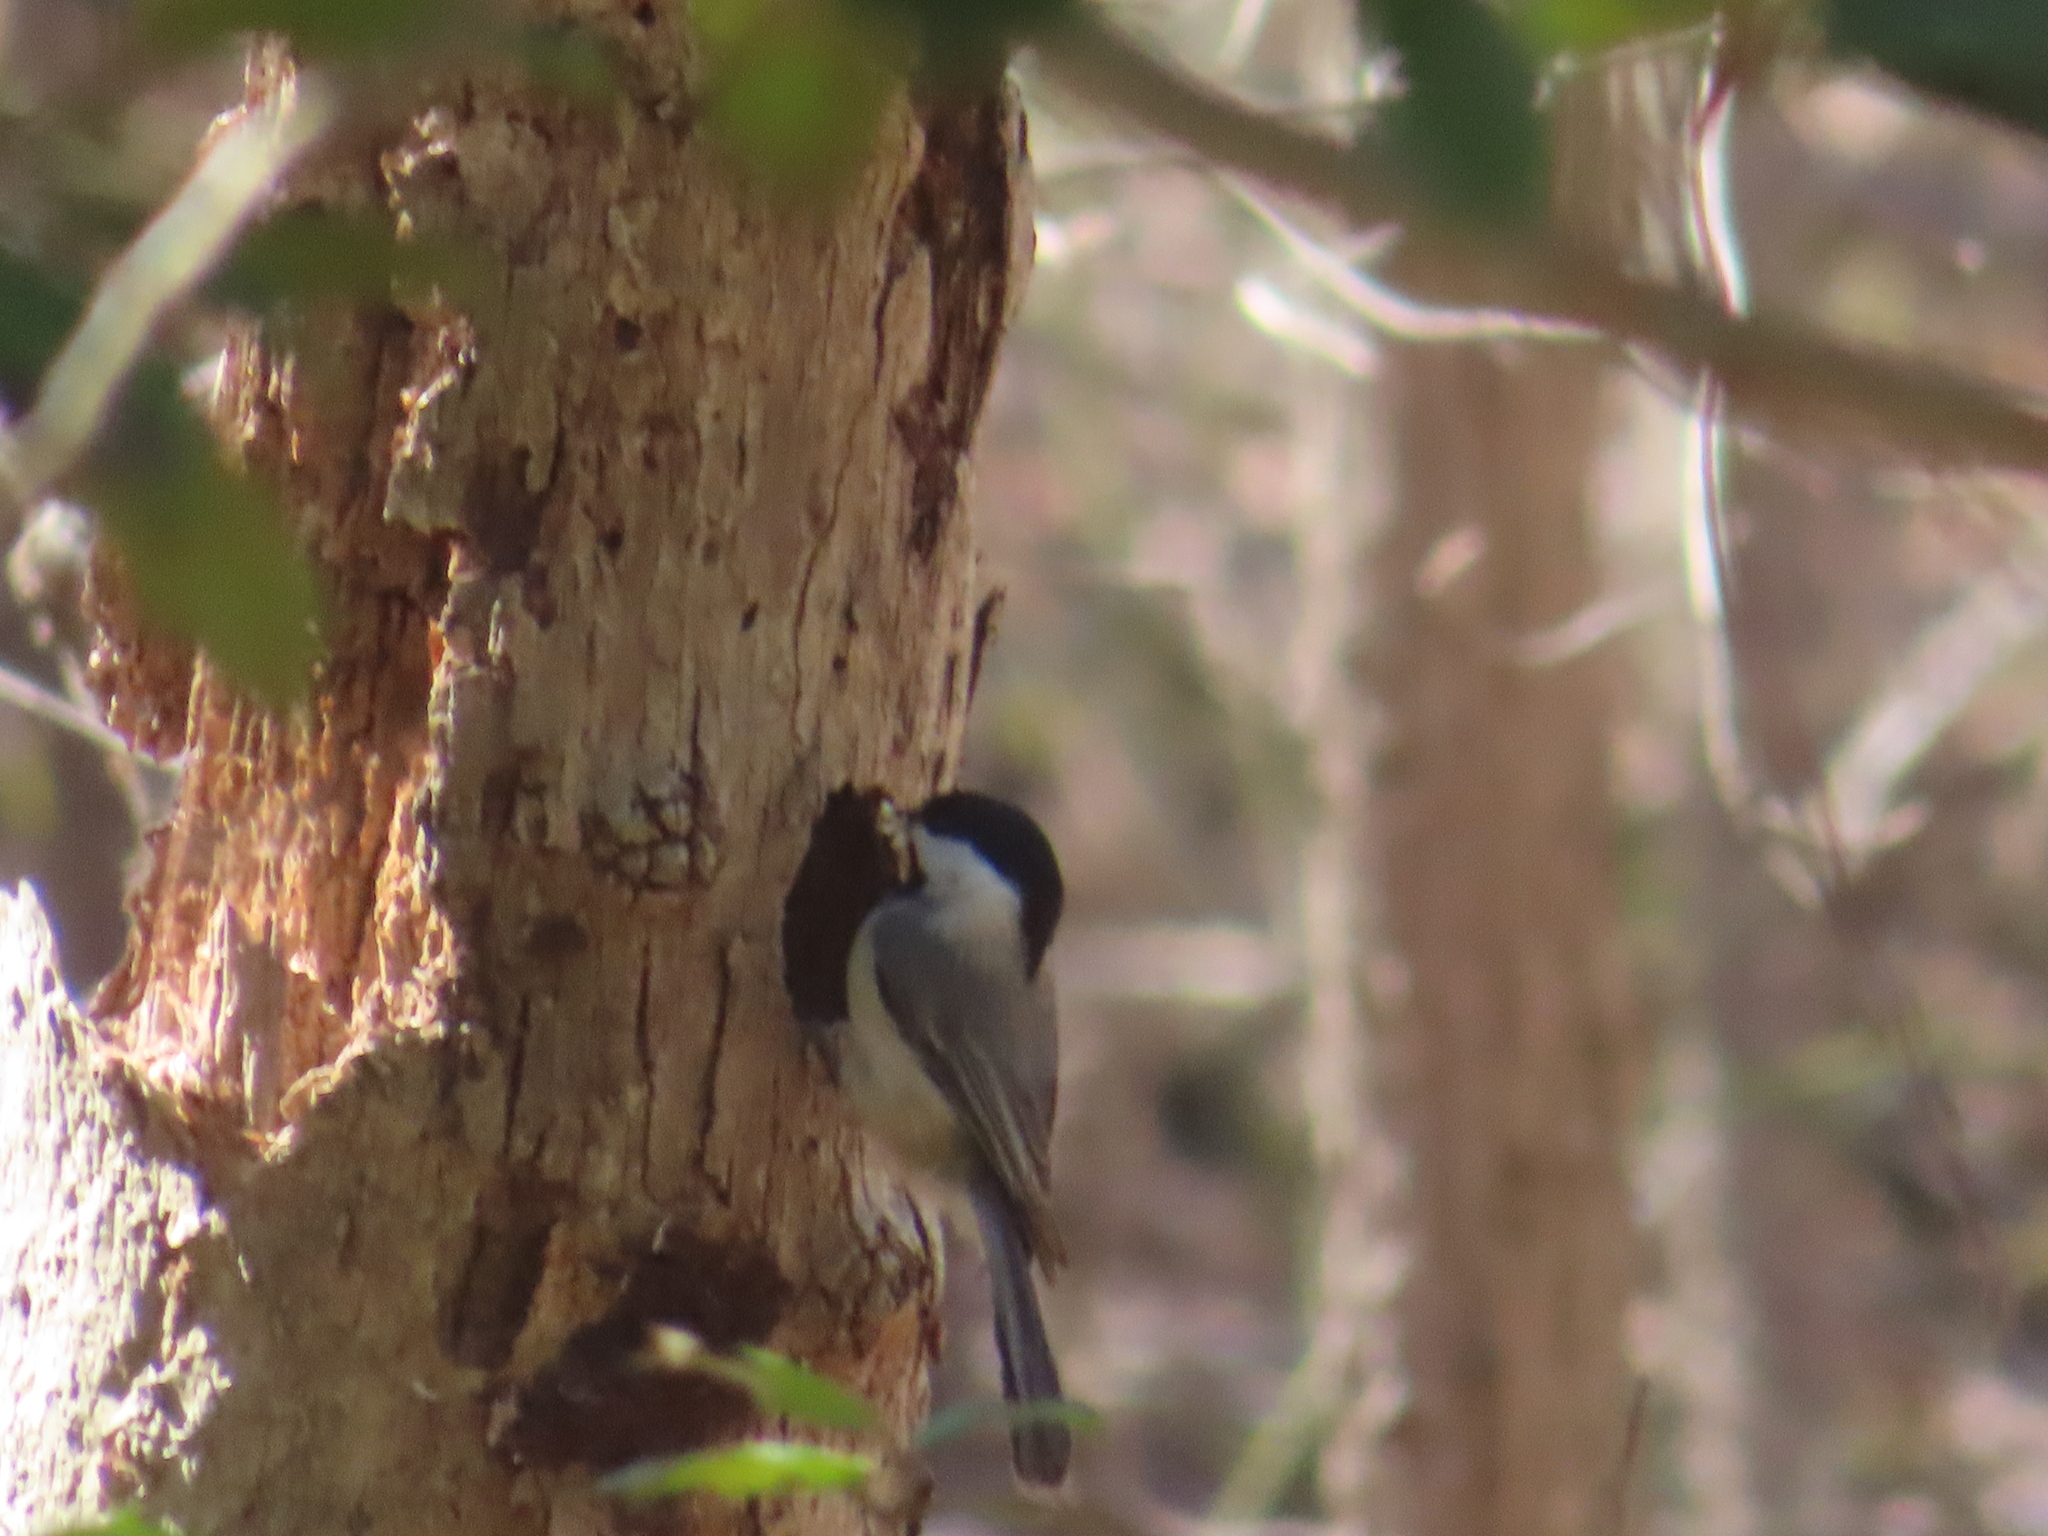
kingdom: Animalia
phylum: Chordata
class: Aves
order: Passeriformes
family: Paridae
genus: Poecile
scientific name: Poecile carolinensis
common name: Carolina chickadee
